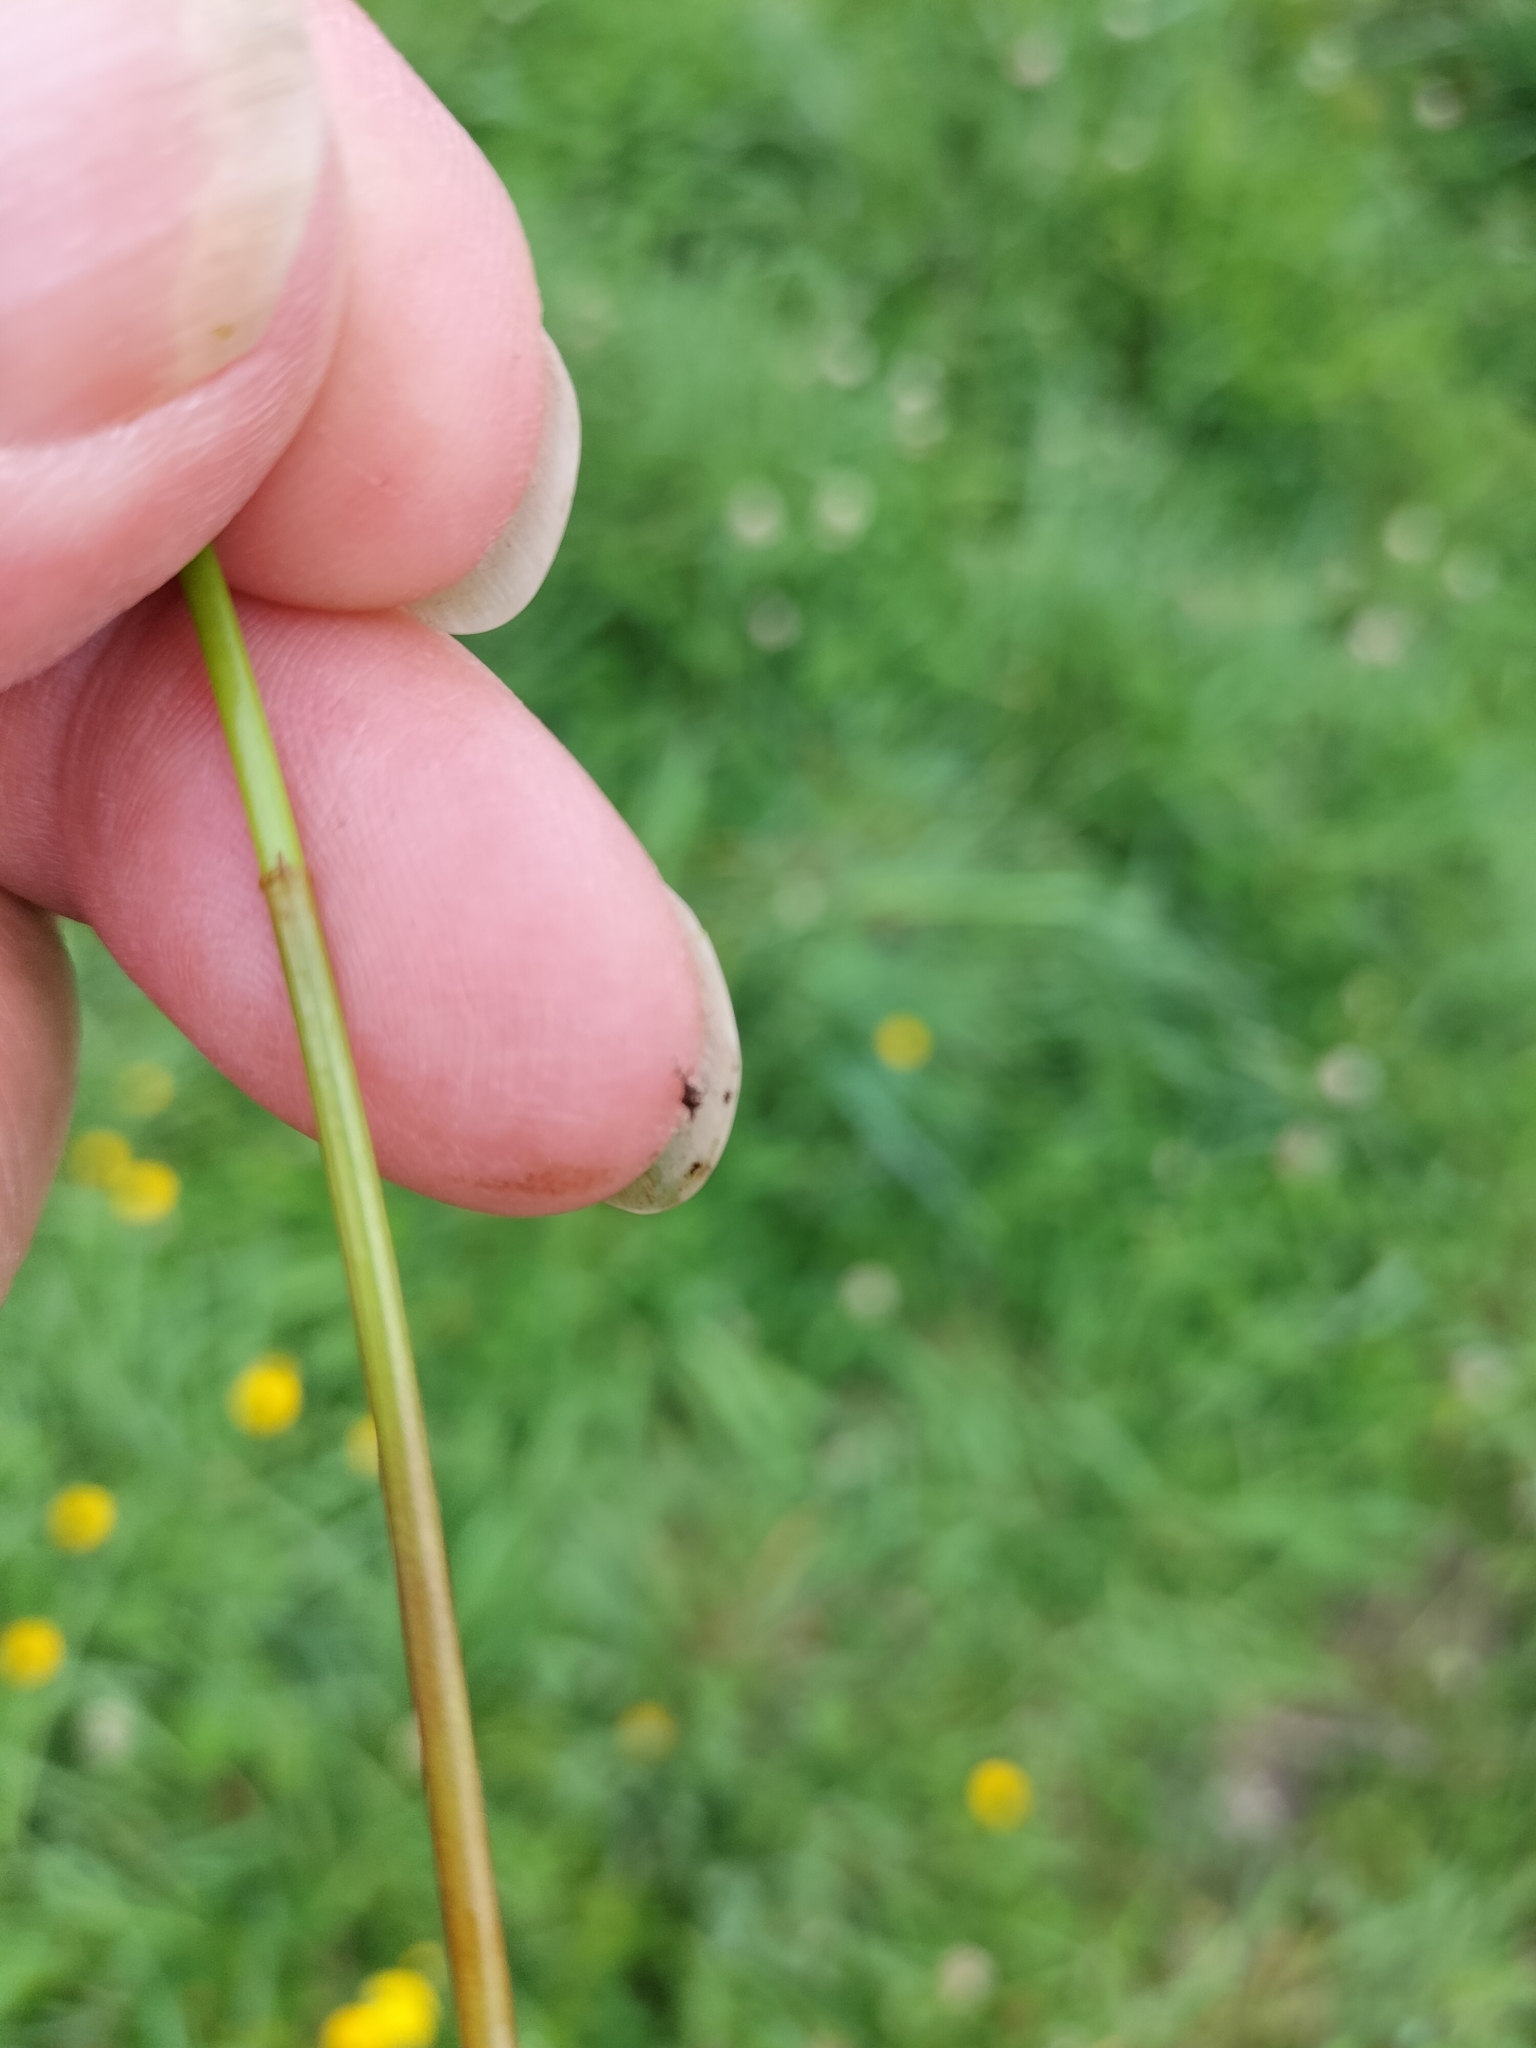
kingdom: Plantae
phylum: Tracheophyta
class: Liliopsida
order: Poales
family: Cyperaceae
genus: Eleocharis
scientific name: Eleocharis acuta
